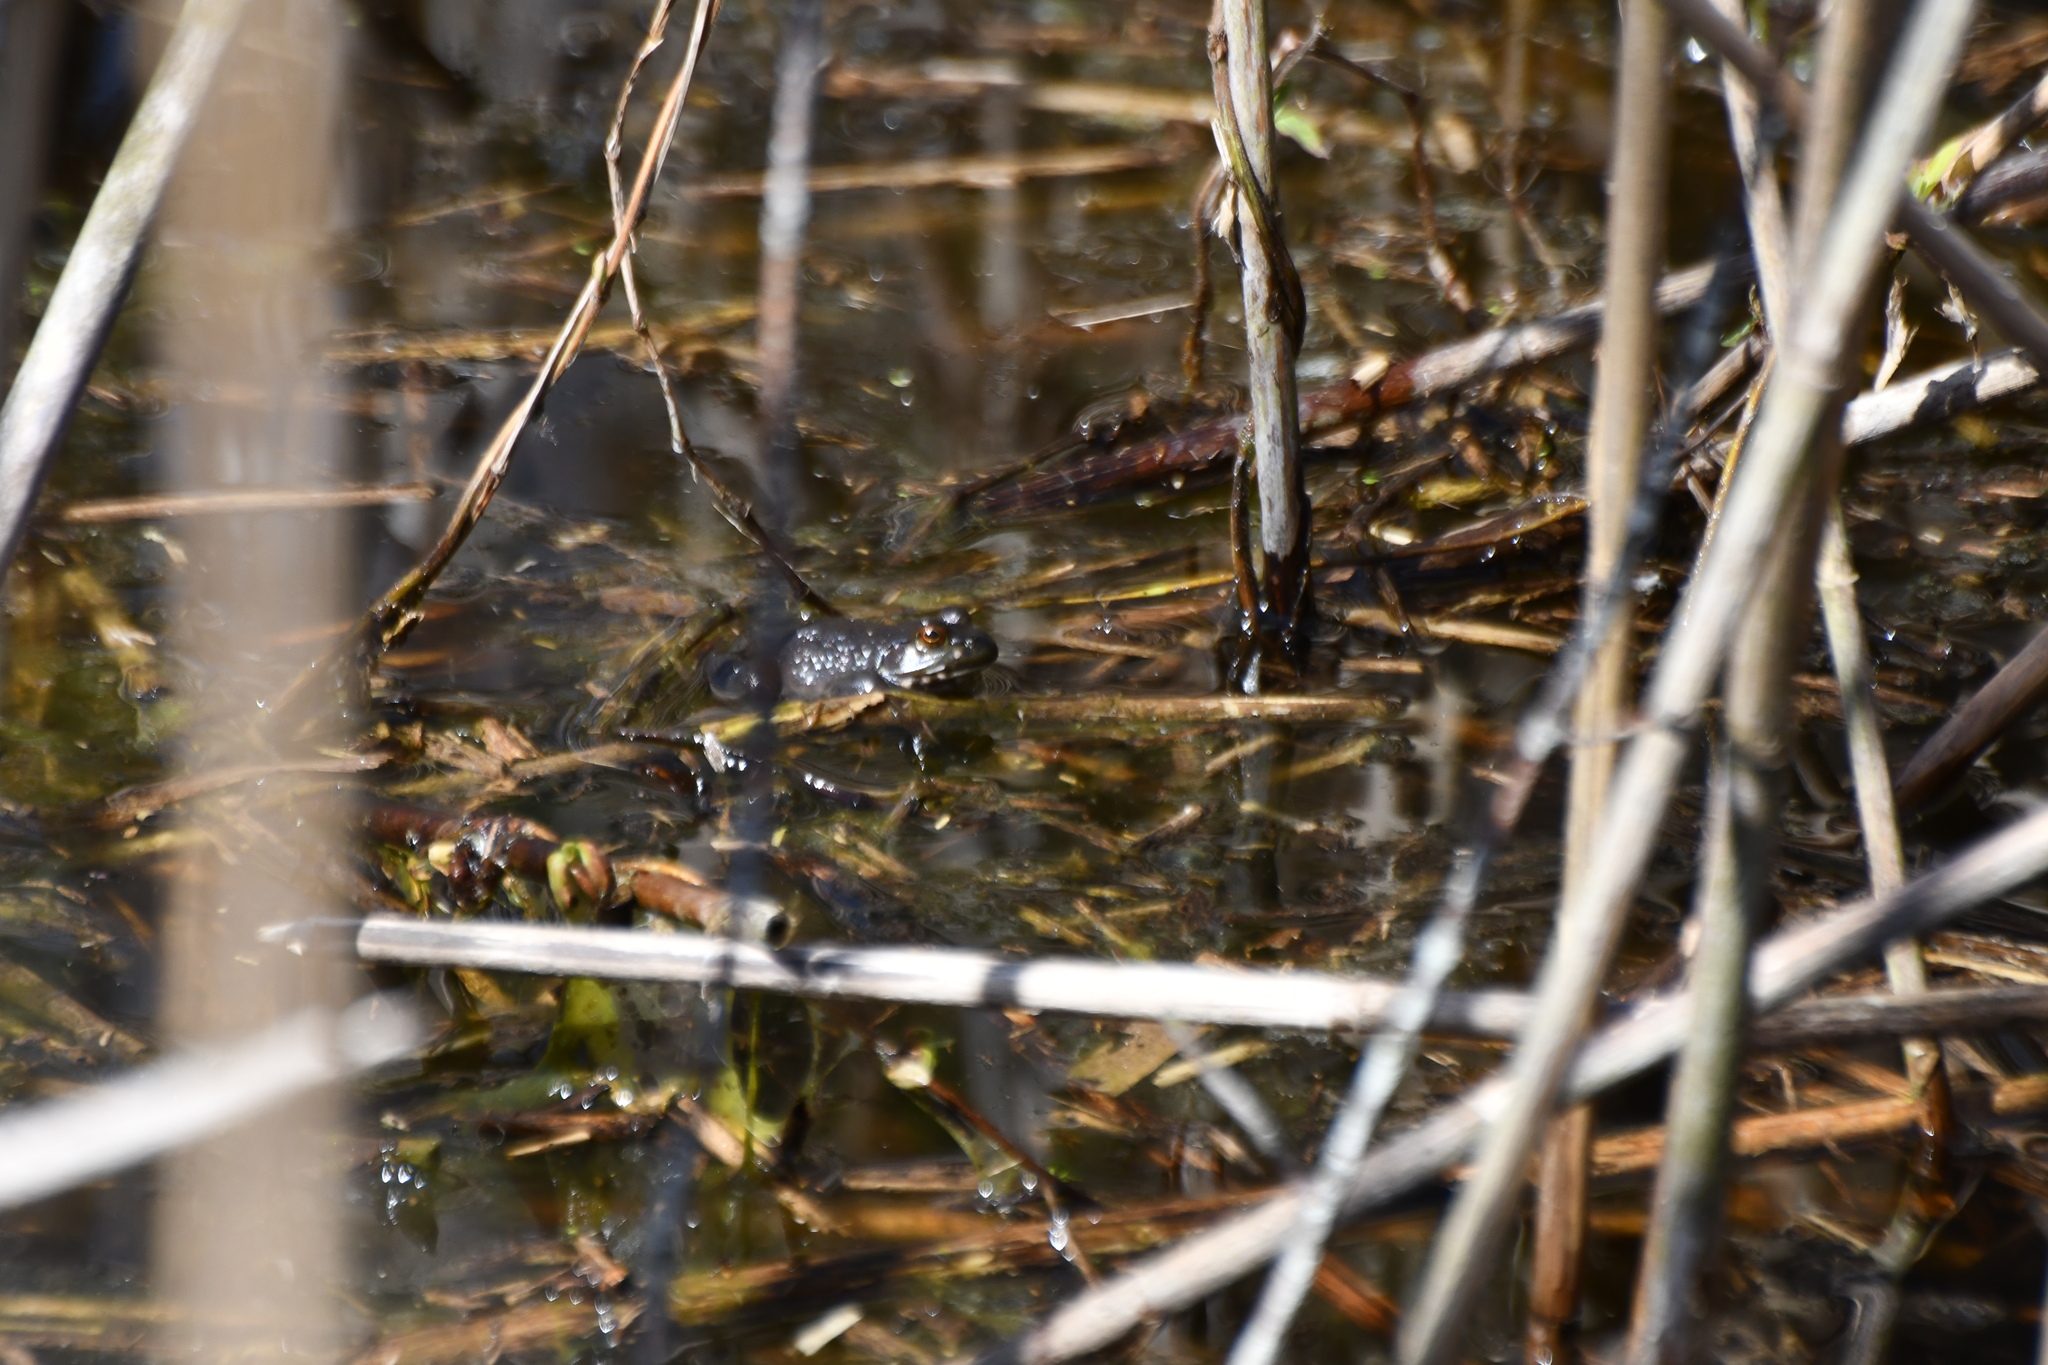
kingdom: Animalia
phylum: Chordata
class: Amphibia
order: Anura
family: Ranidae
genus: Lithobates
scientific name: Lithobates catesbeianus
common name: American bullfrog
